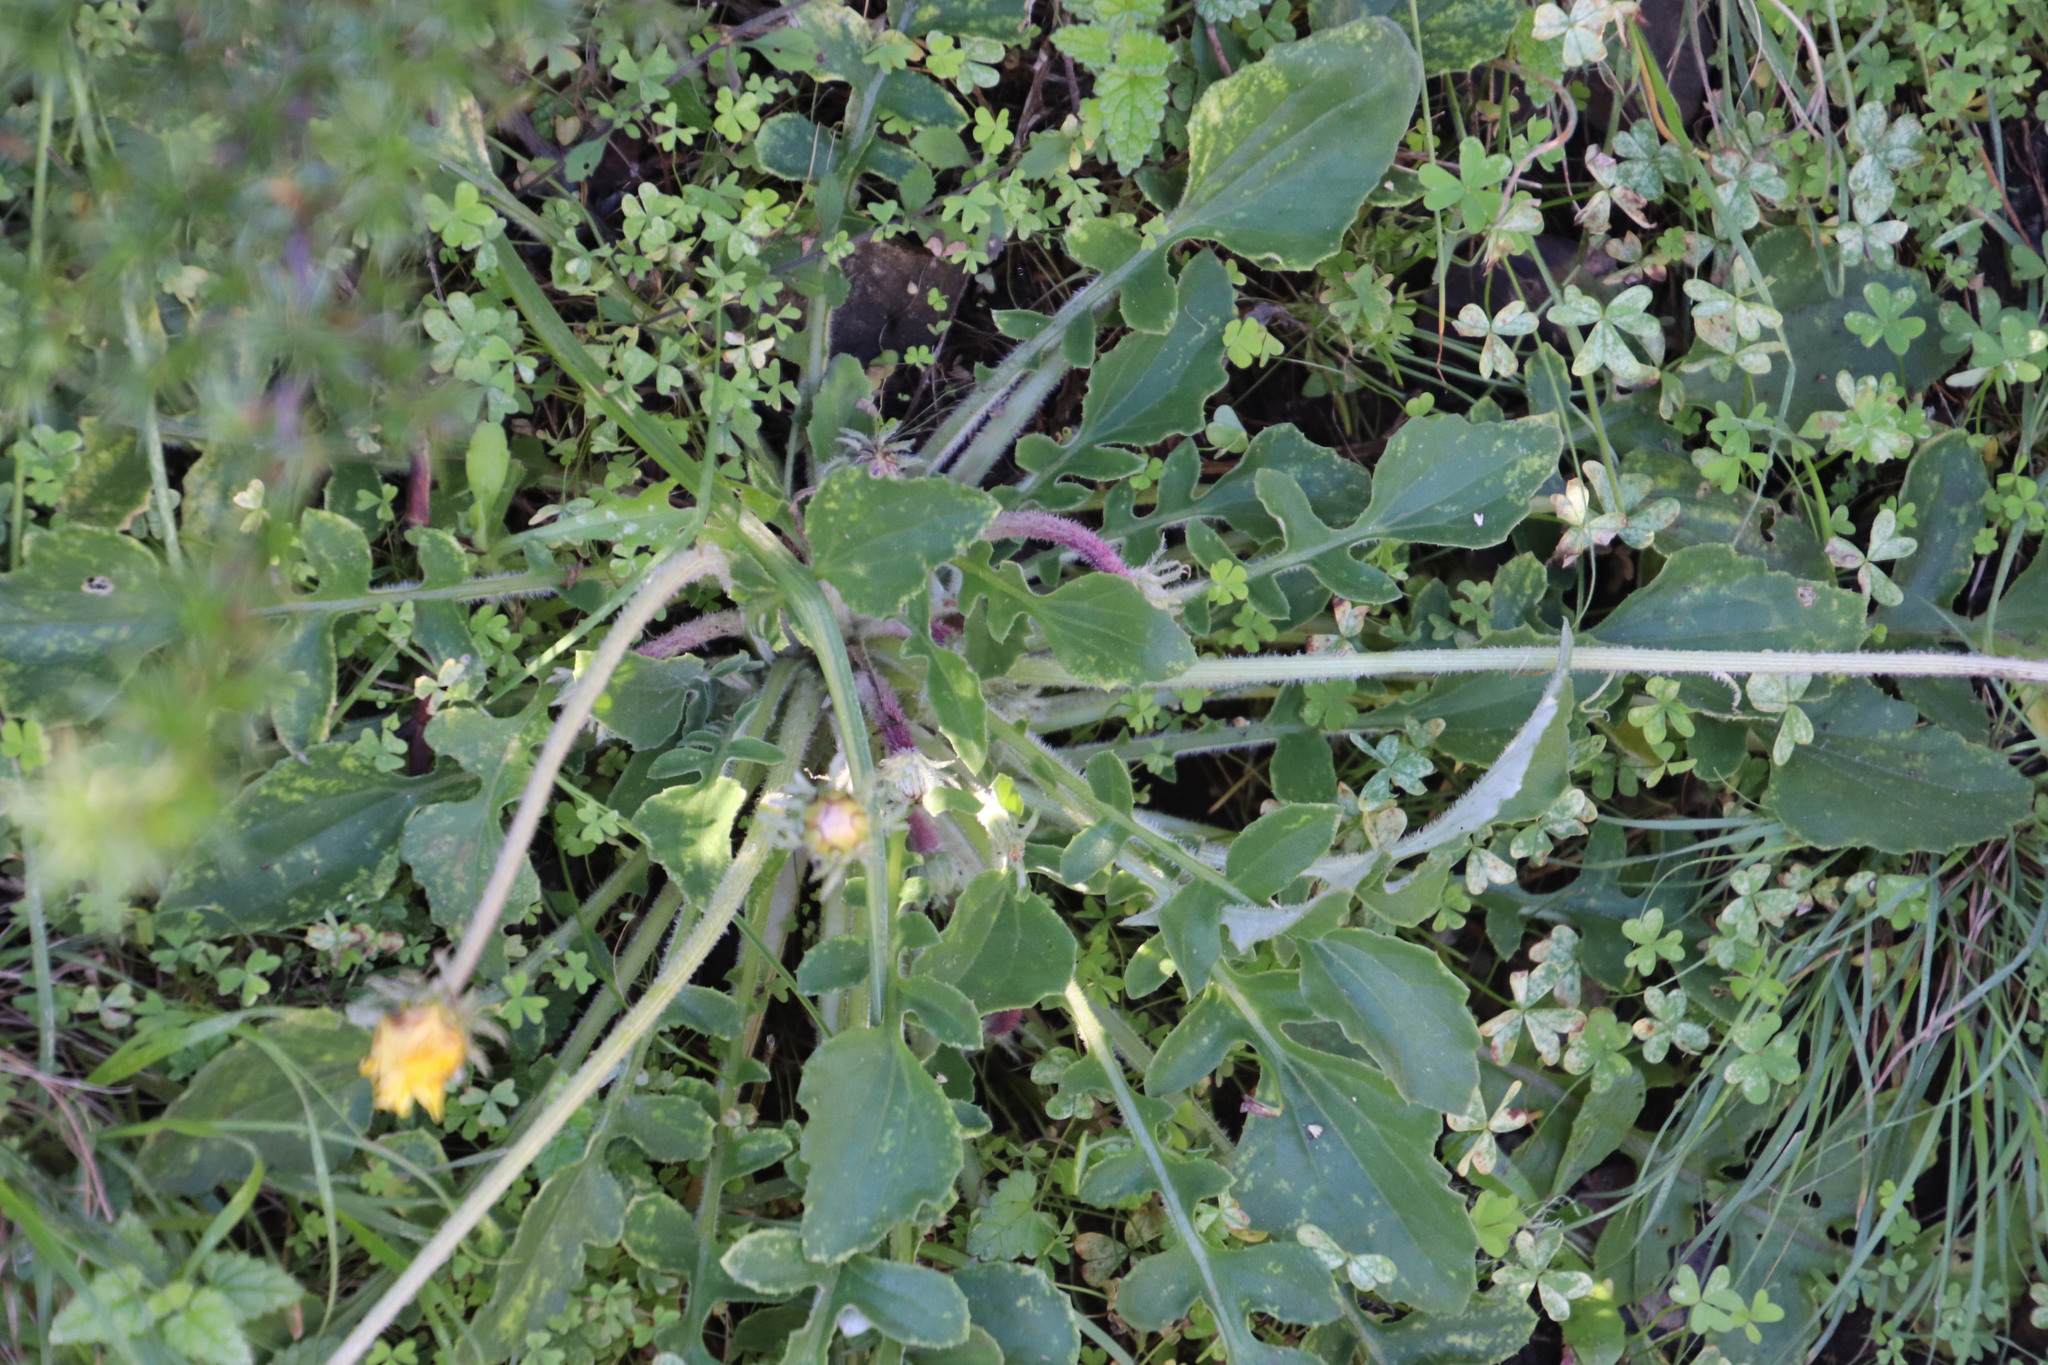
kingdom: Plantae
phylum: Tracheophyta
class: Magnoliopsida
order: Asterales
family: Asteraceae
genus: Arctotis
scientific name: Arctotis acaulis
